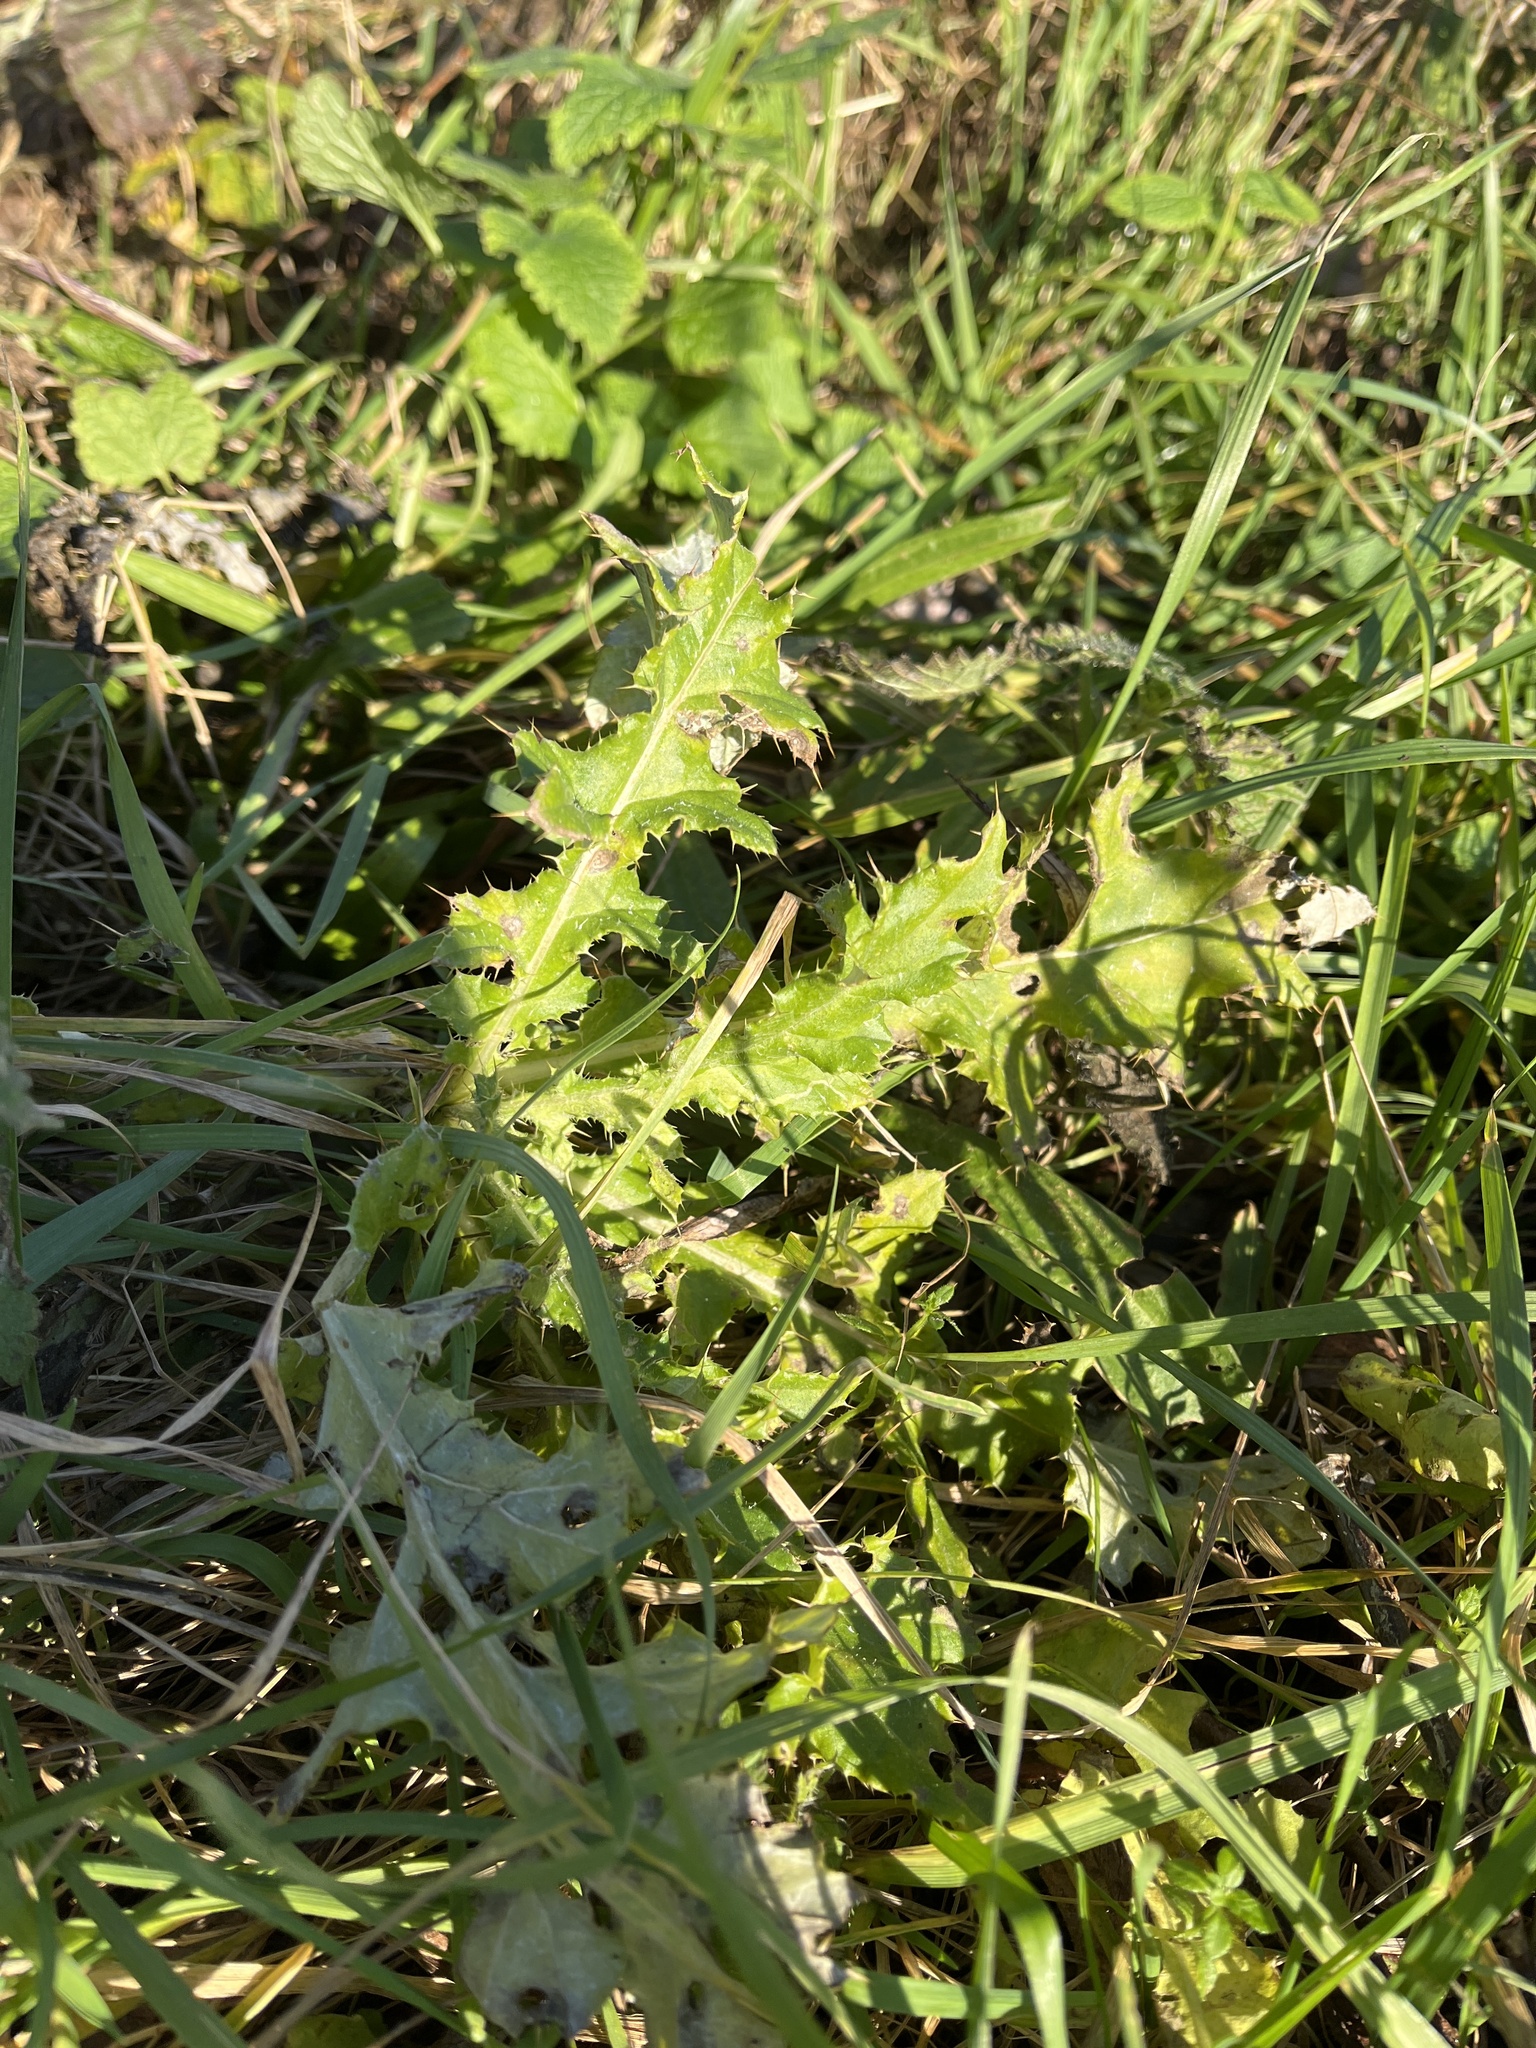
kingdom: Plantae
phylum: Tracheophyta
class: Magnoliopsida
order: Asterales
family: Asteraceae
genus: Cirsium
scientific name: Cirsium arvense
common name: Creeping thistle
